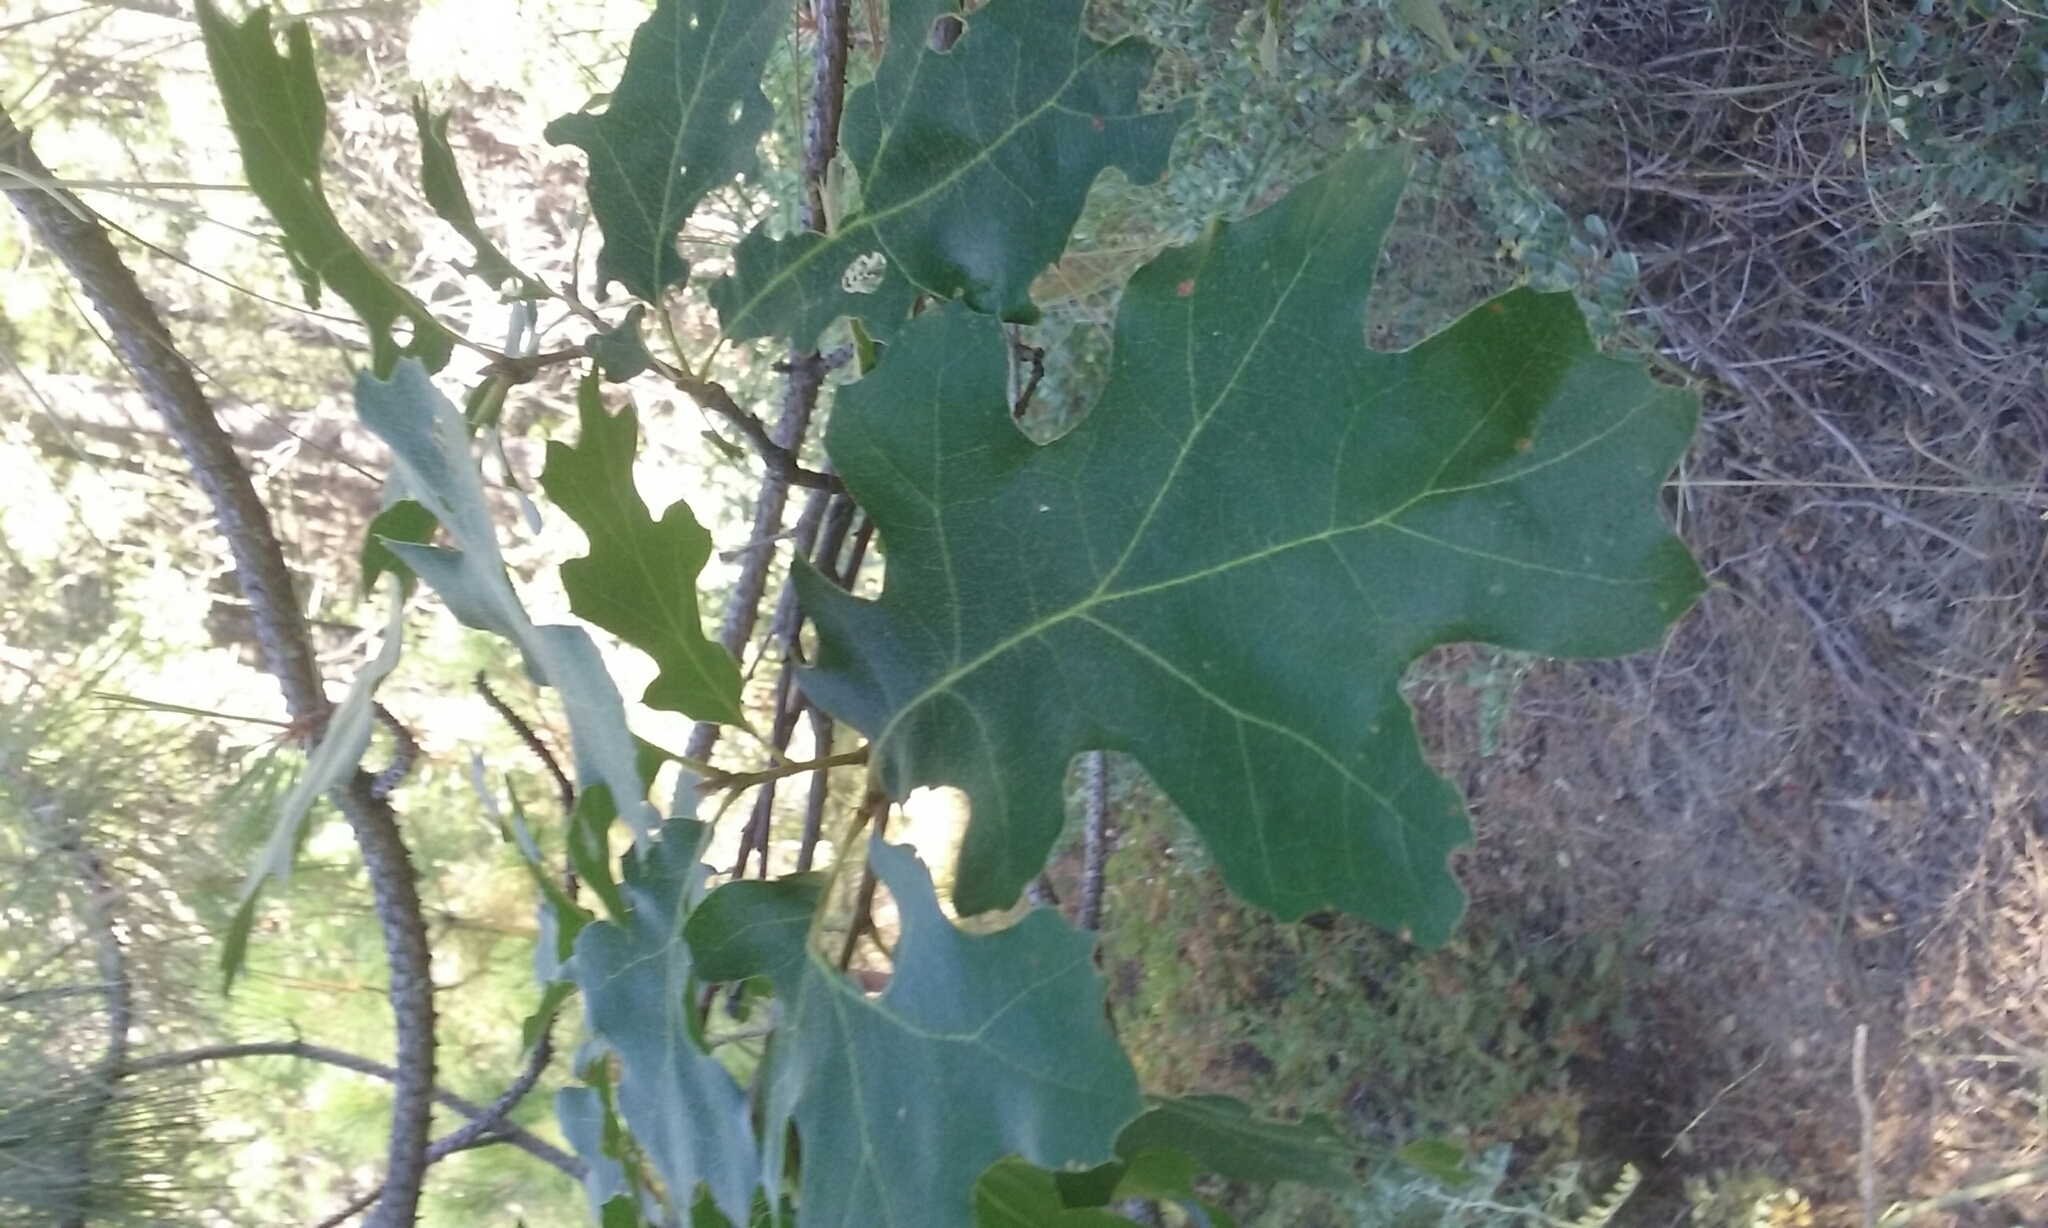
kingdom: Plantae
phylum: Tracheophyta
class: Magnoliopsida
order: Fagales
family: Fagaceae
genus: Quercus
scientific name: Quercus kelloggii
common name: California black oak
